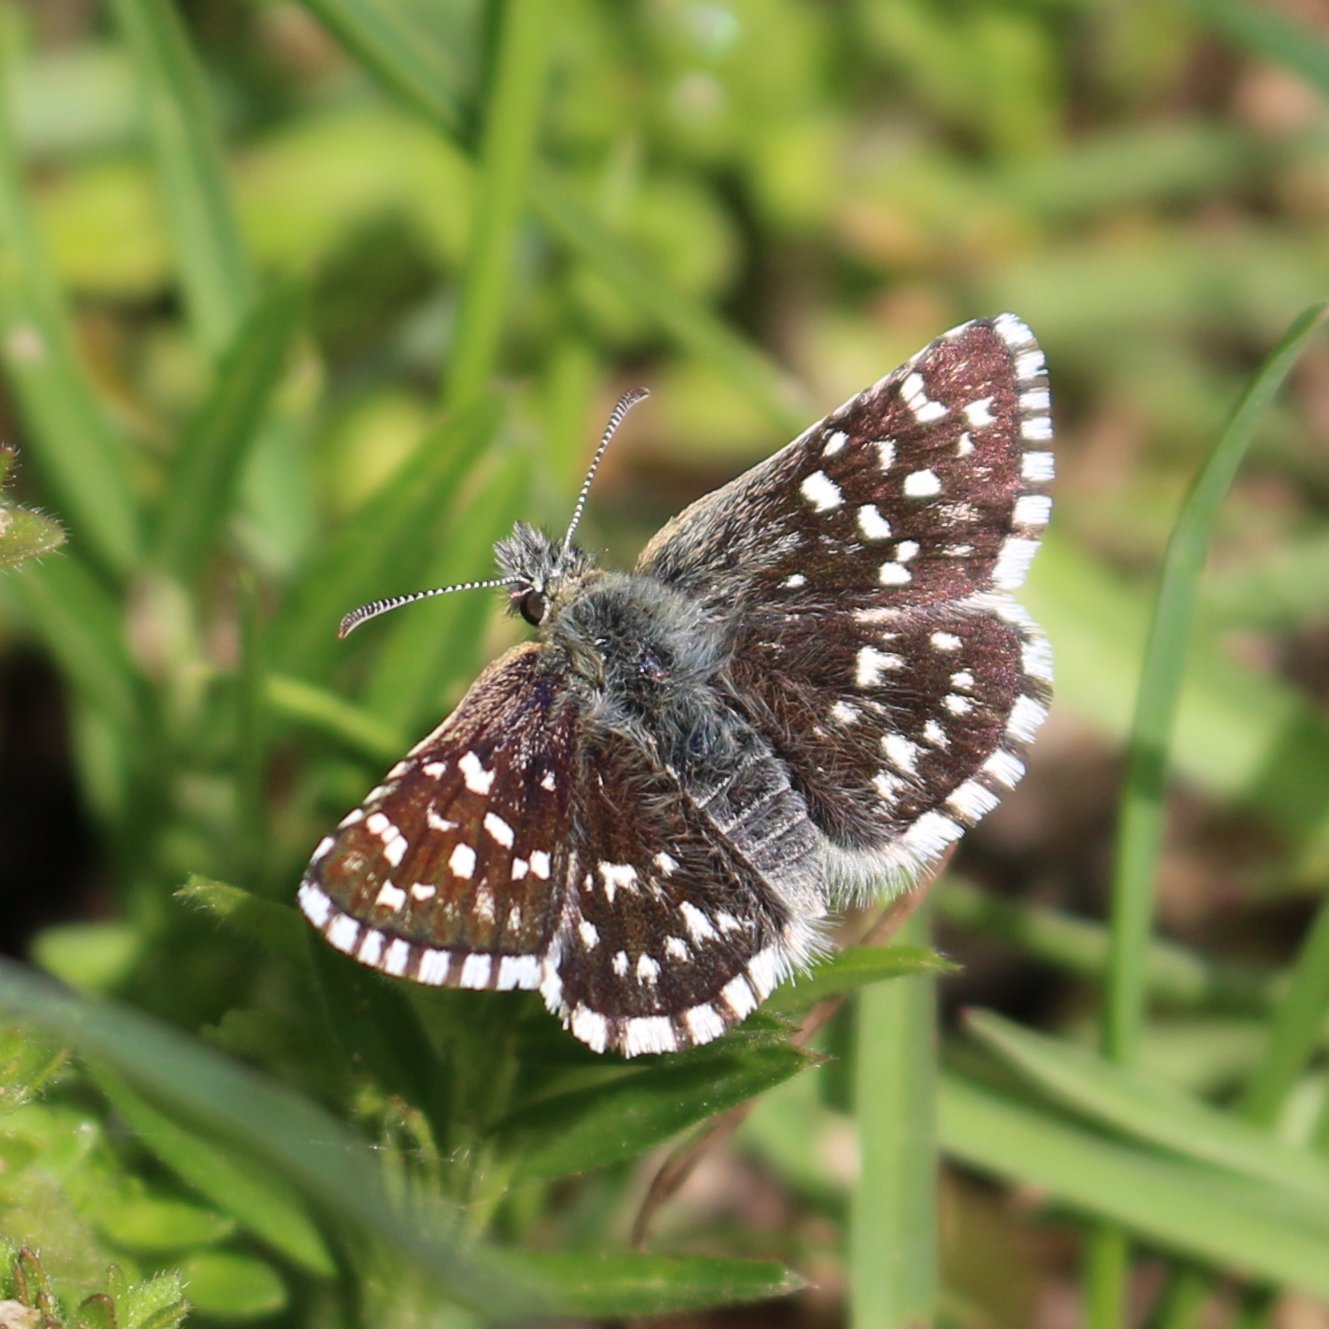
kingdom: Animalia
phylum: Arthropoda
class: Insecta
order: Lepidoptera
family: Hesperiidae
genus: Pyrgus
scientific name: Pyrgus melotis
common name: Aegean skipper
